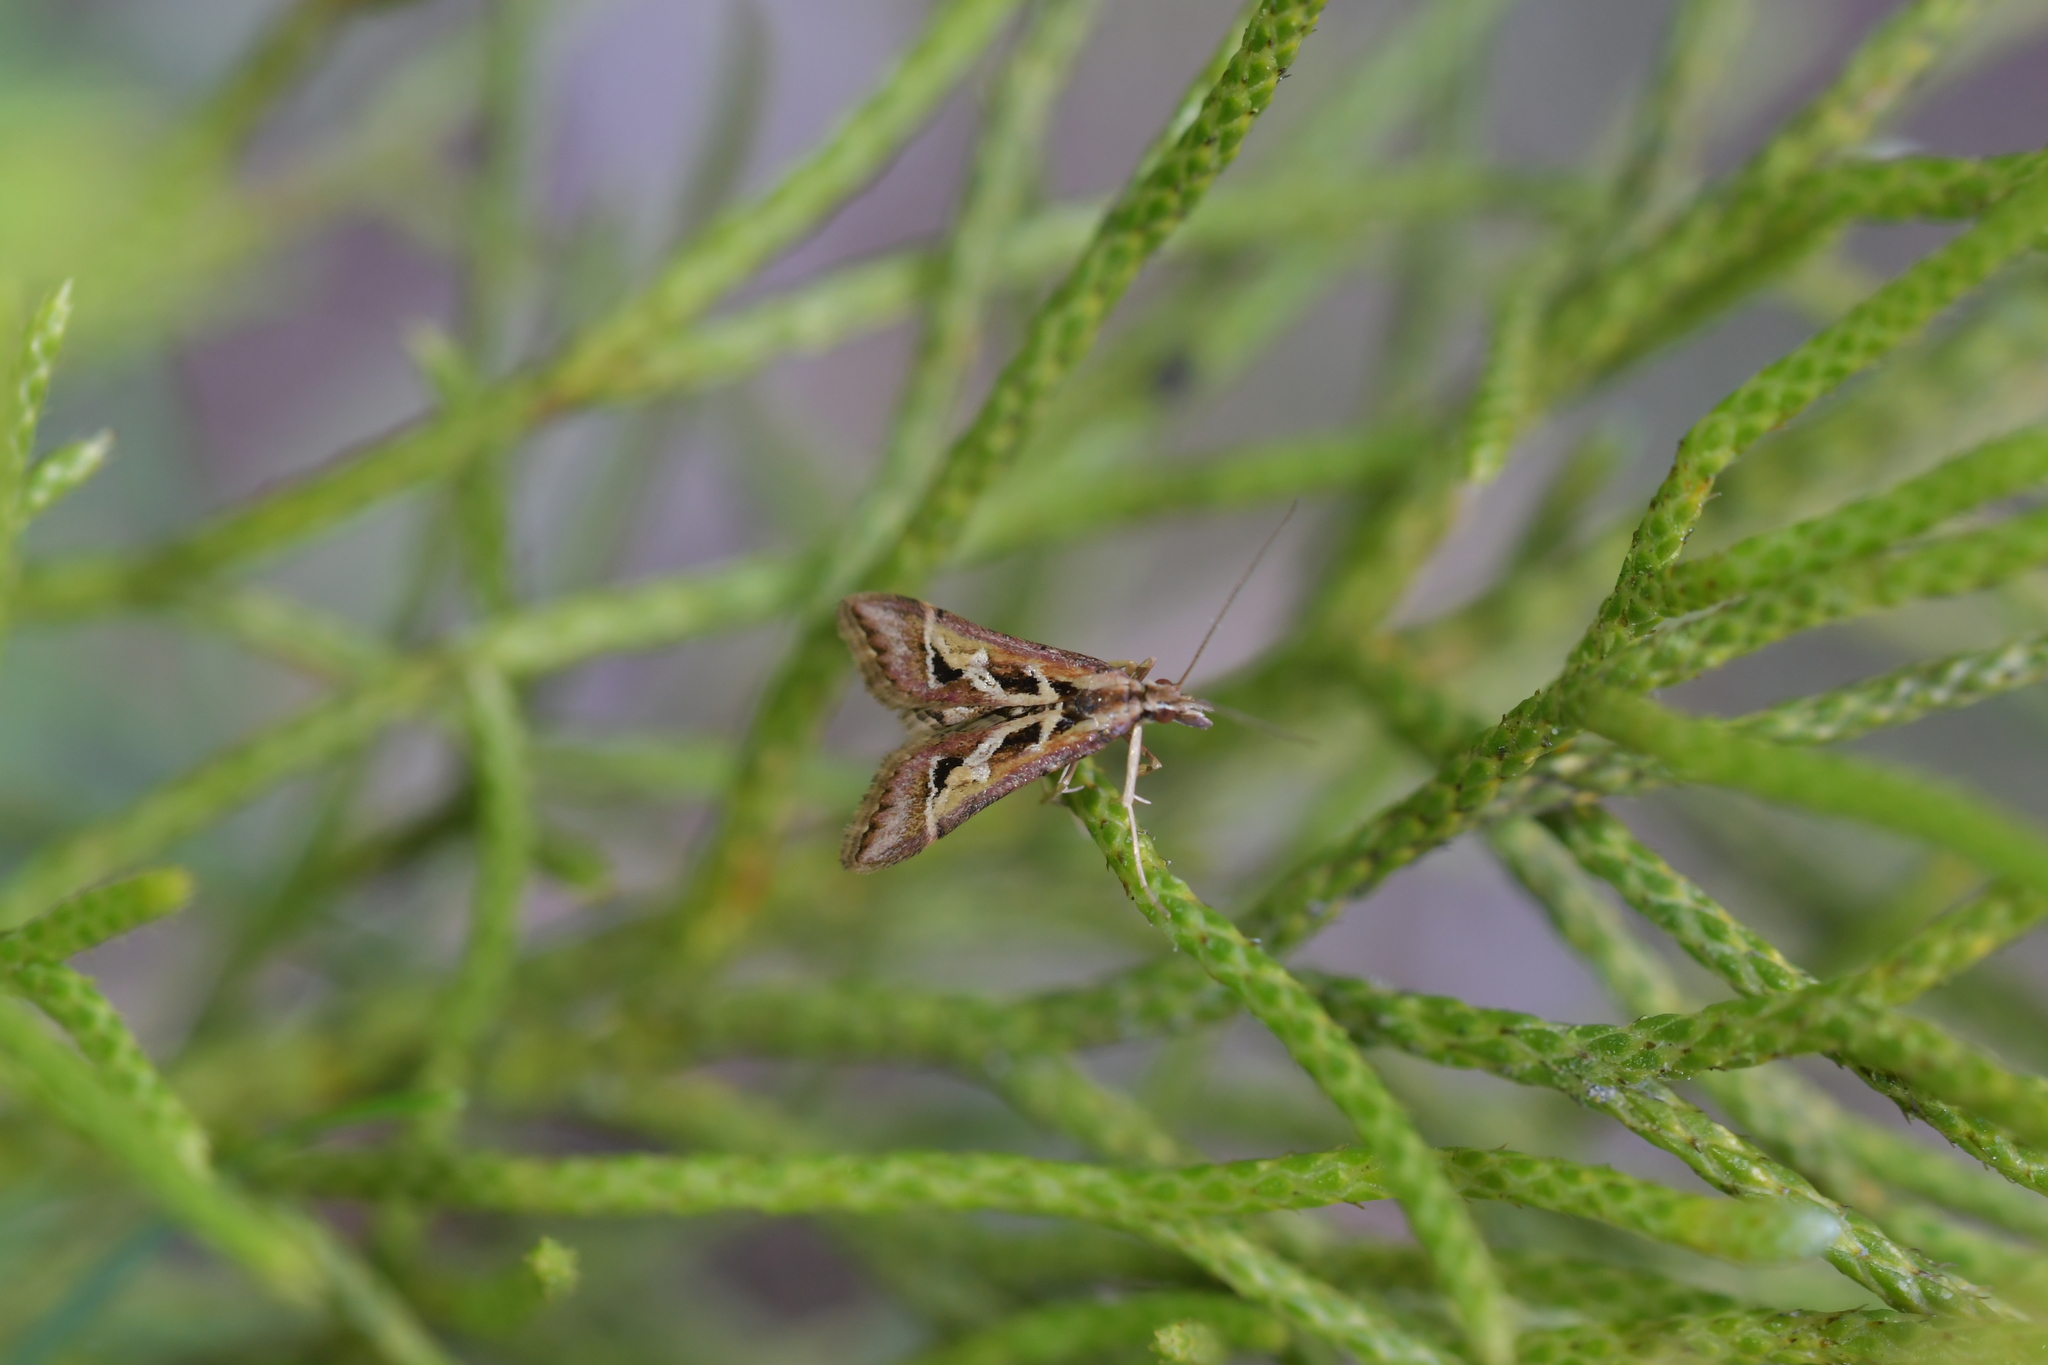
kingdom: Animalia
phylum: Arthropoda
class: Insecta
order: Lepidoptera
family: Crambidae
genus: Diasemia
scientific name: Diasemia grammalis
